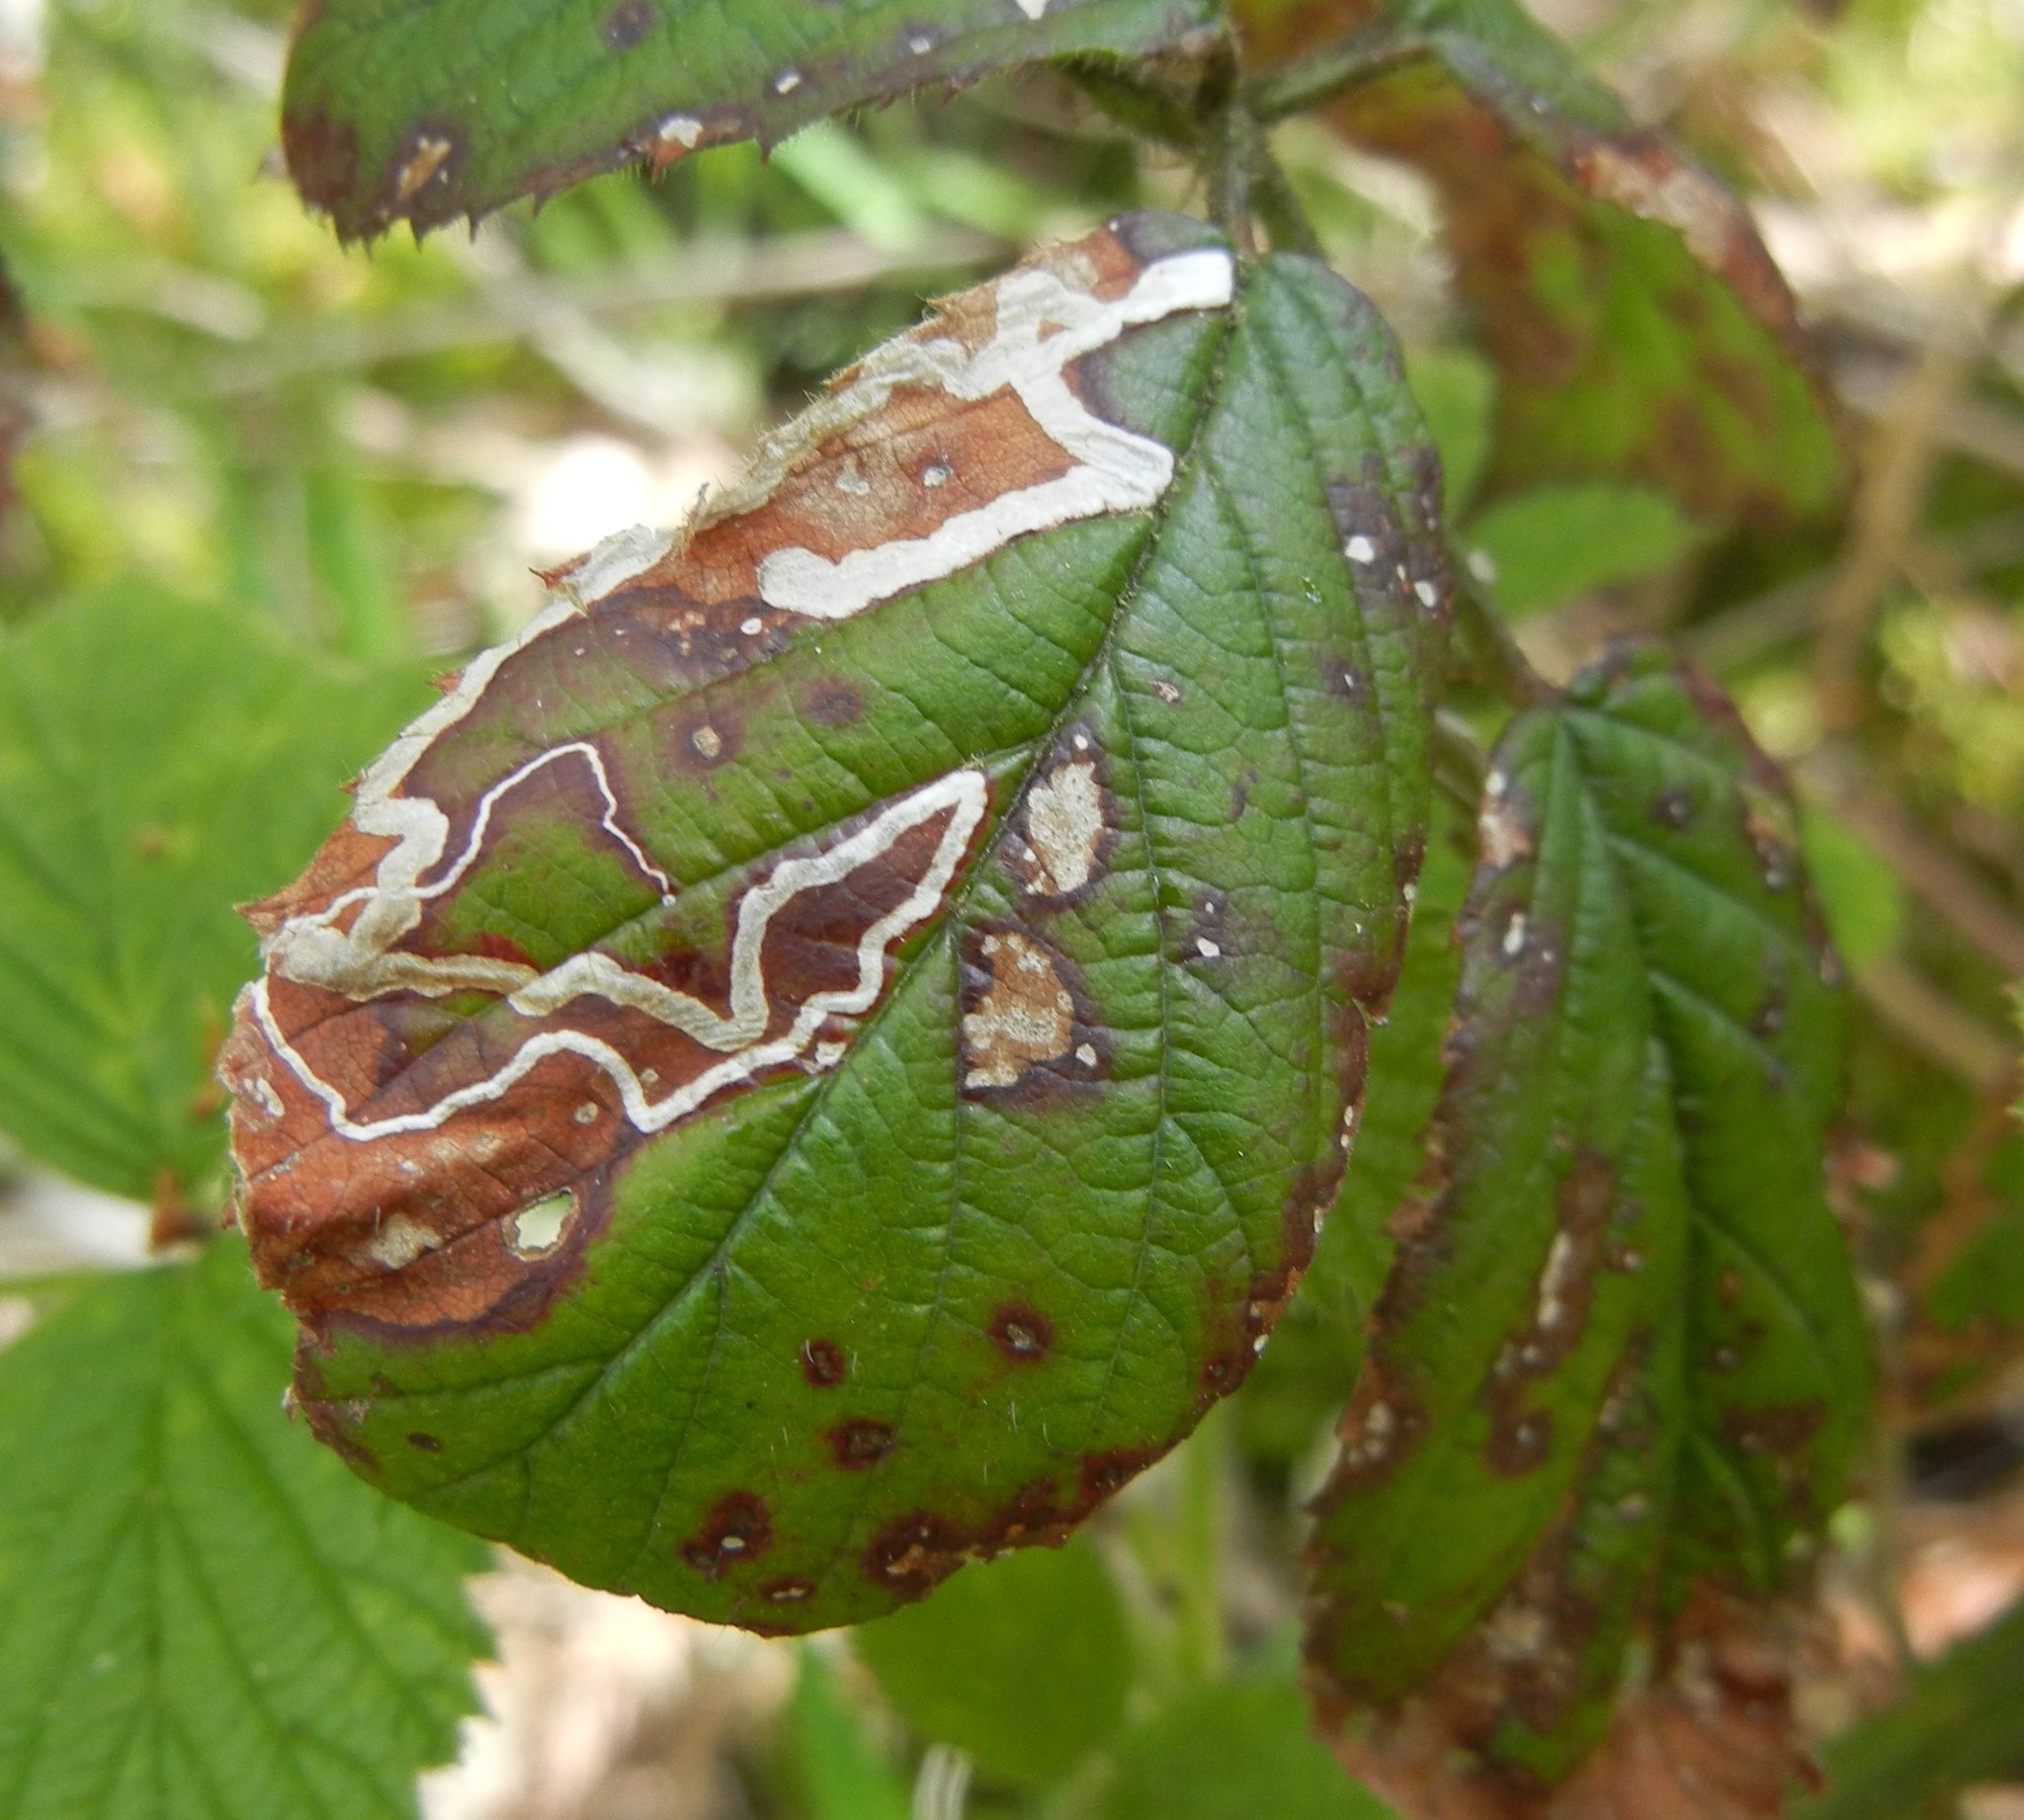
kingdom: Animalia
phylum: Arthropoda
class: Insecta
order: Lepidoptera
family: Nepticulidae
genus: Stigmella
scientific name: Stigmella aurella
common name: Golden pigmy
